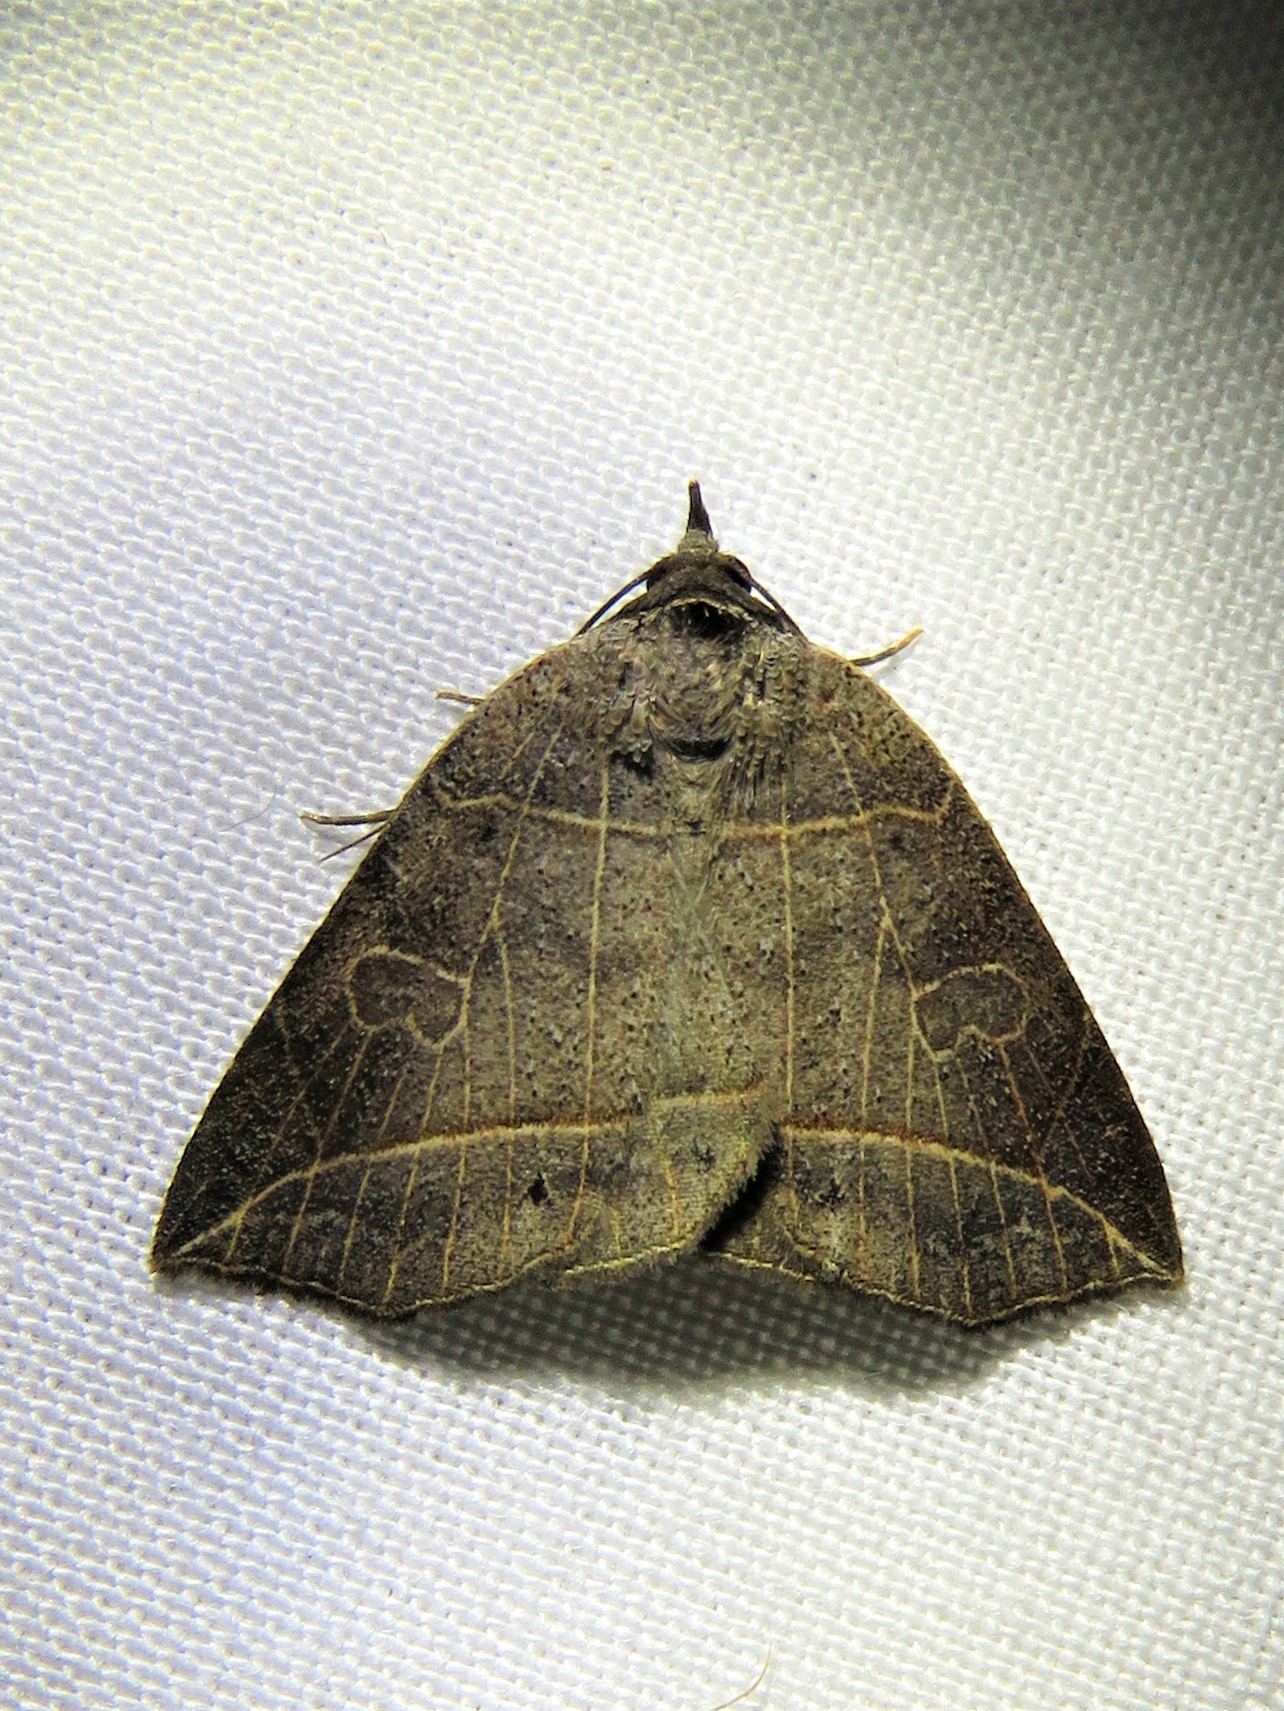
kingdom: Animalia
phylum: Arthropoda
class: Insecta
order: Lepidoptera
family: Erebidae
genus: Isogona
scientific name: Isogona tenuis
